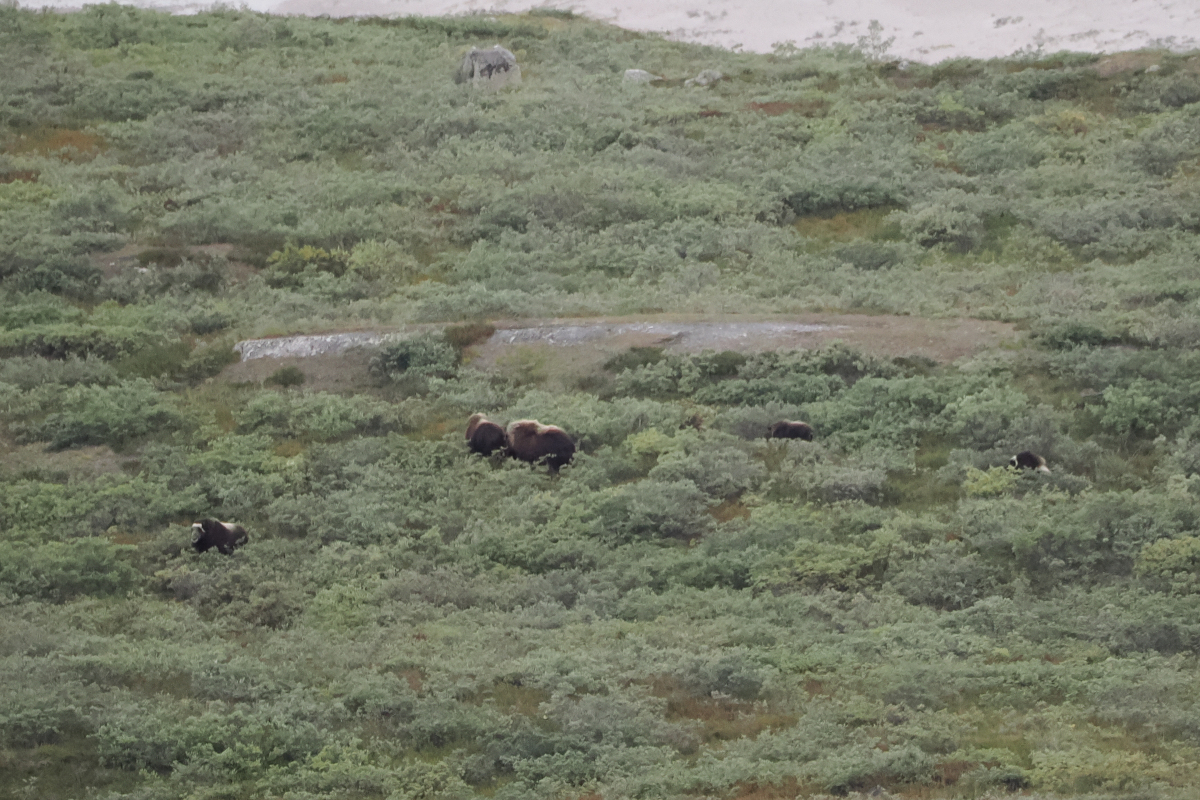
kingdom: Animalia
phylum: Chordata
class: Mammalia
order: Artiodactyla
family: Bovidae
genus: Ovibos
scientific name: Ovibos moschatus
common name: Muskox
